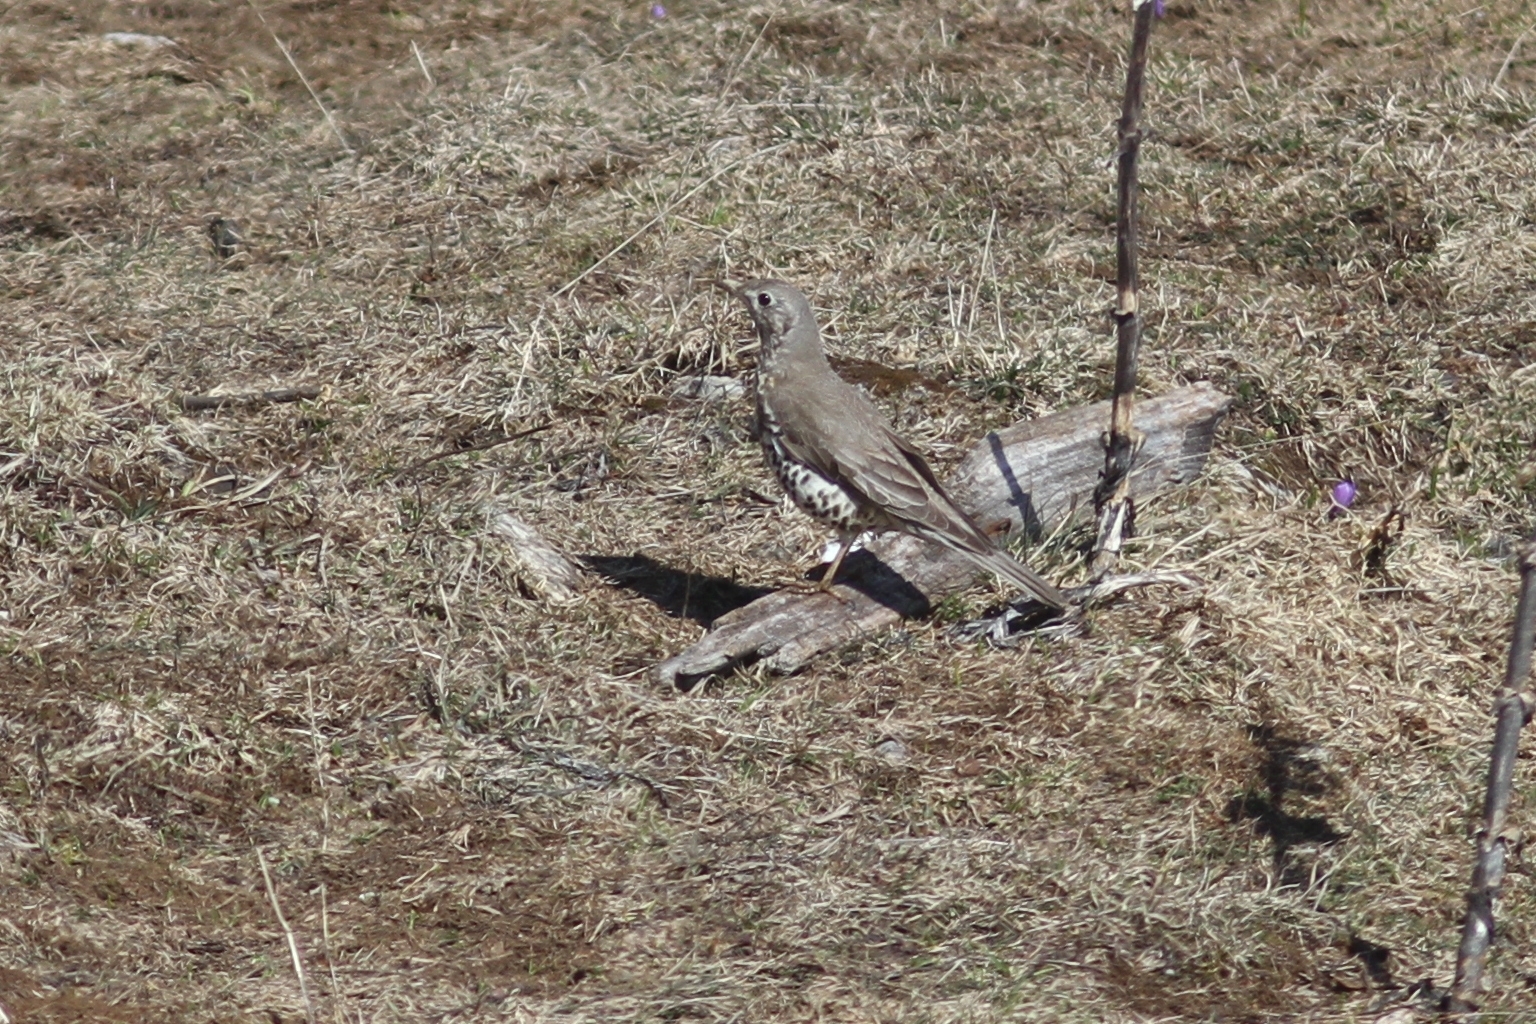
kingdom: Animalia
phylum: Chordata
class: Aves
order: Passeriformes
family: Turdidae
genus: Turdus
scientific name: Turdus viscivorus
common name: Mistle thrush
